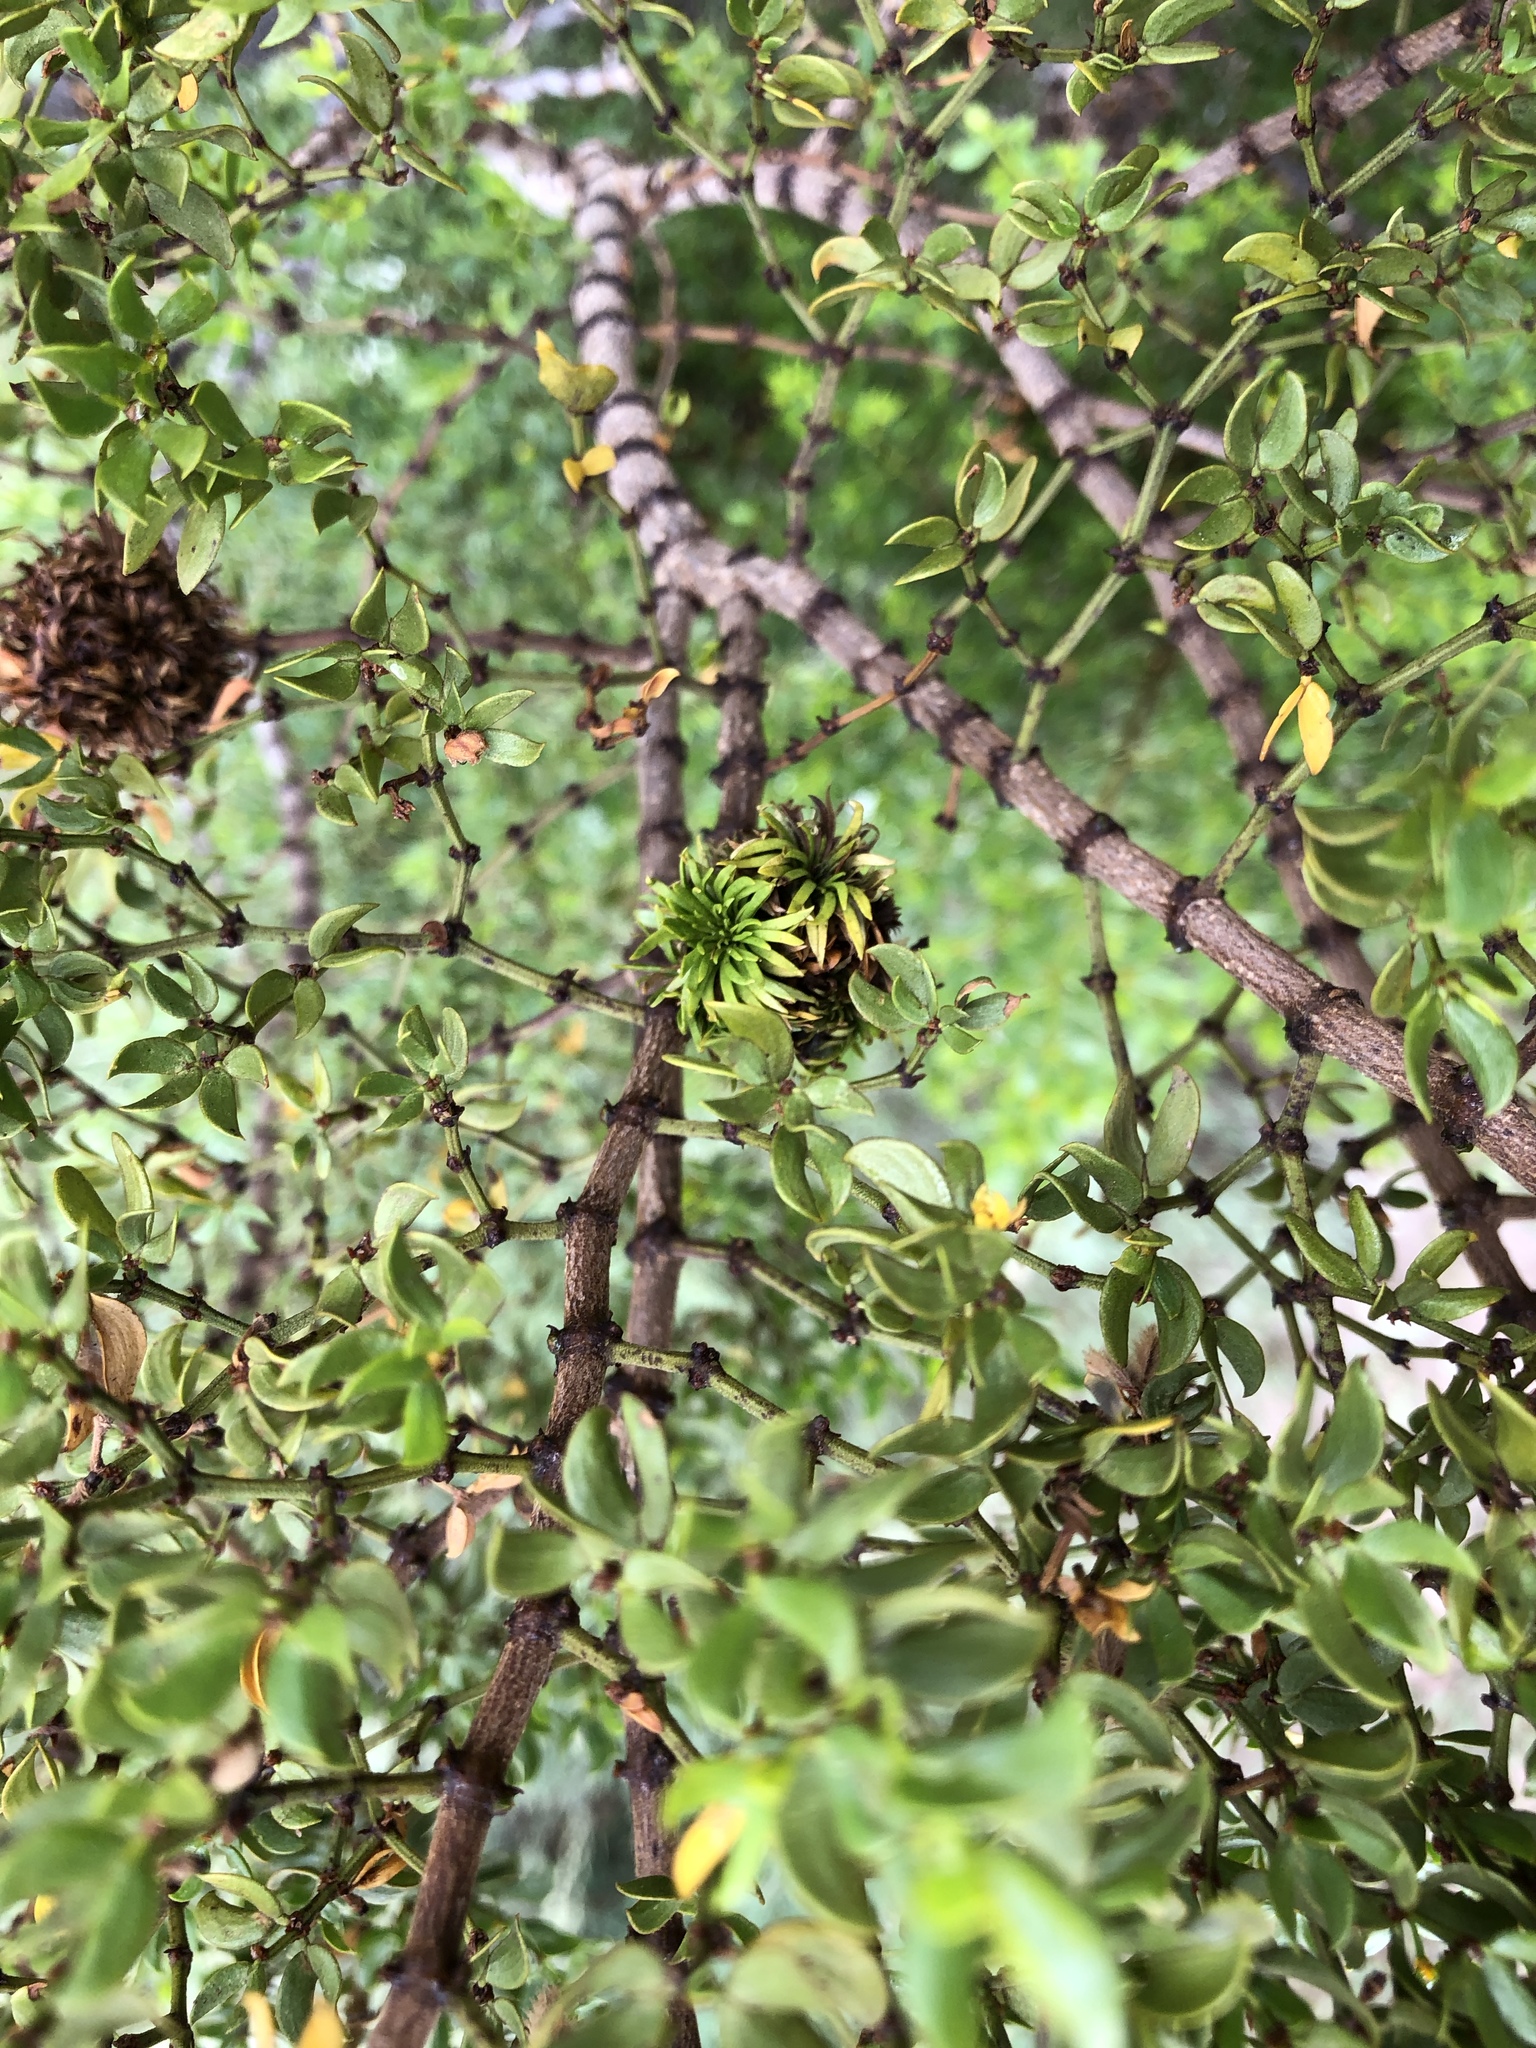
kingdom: Animalia
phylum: Arthropoda
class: Insecta
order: Diptera
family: Cecidomyiidae
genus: Asphondylia
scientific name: Asphondylia auripila
